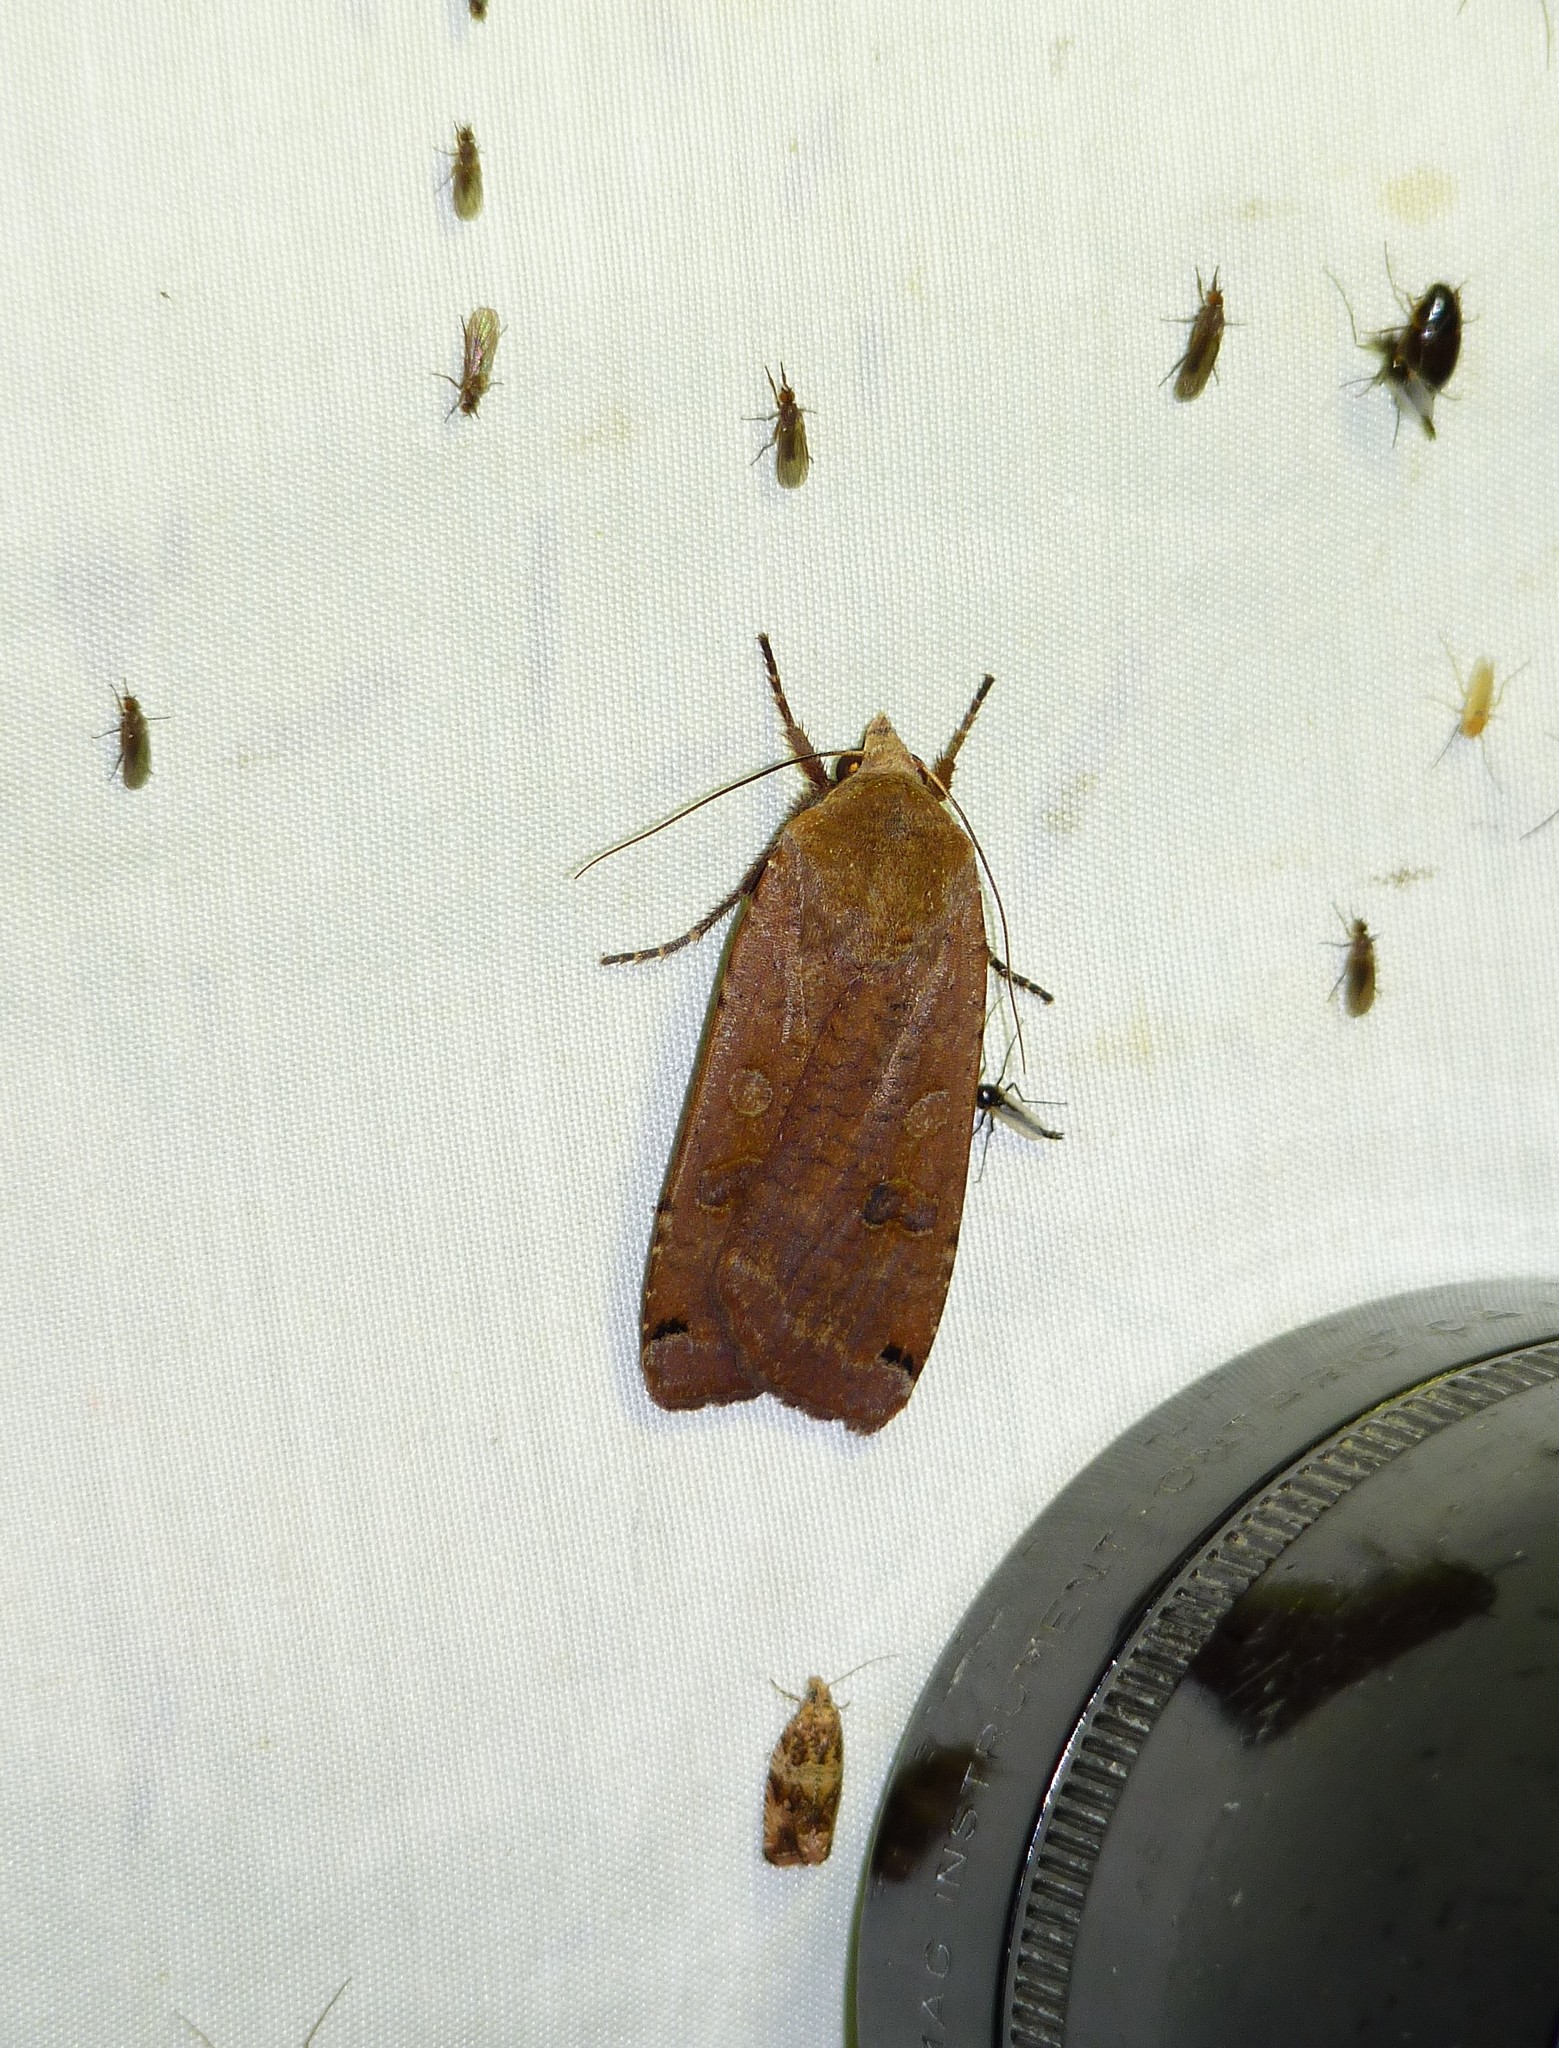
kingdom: Animalia
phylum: Arthropoda
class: Insecta
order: Lepidoptera
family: Noctuidae
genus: Noctua
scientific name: Noctua pronuba
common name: Large yellow underwing
